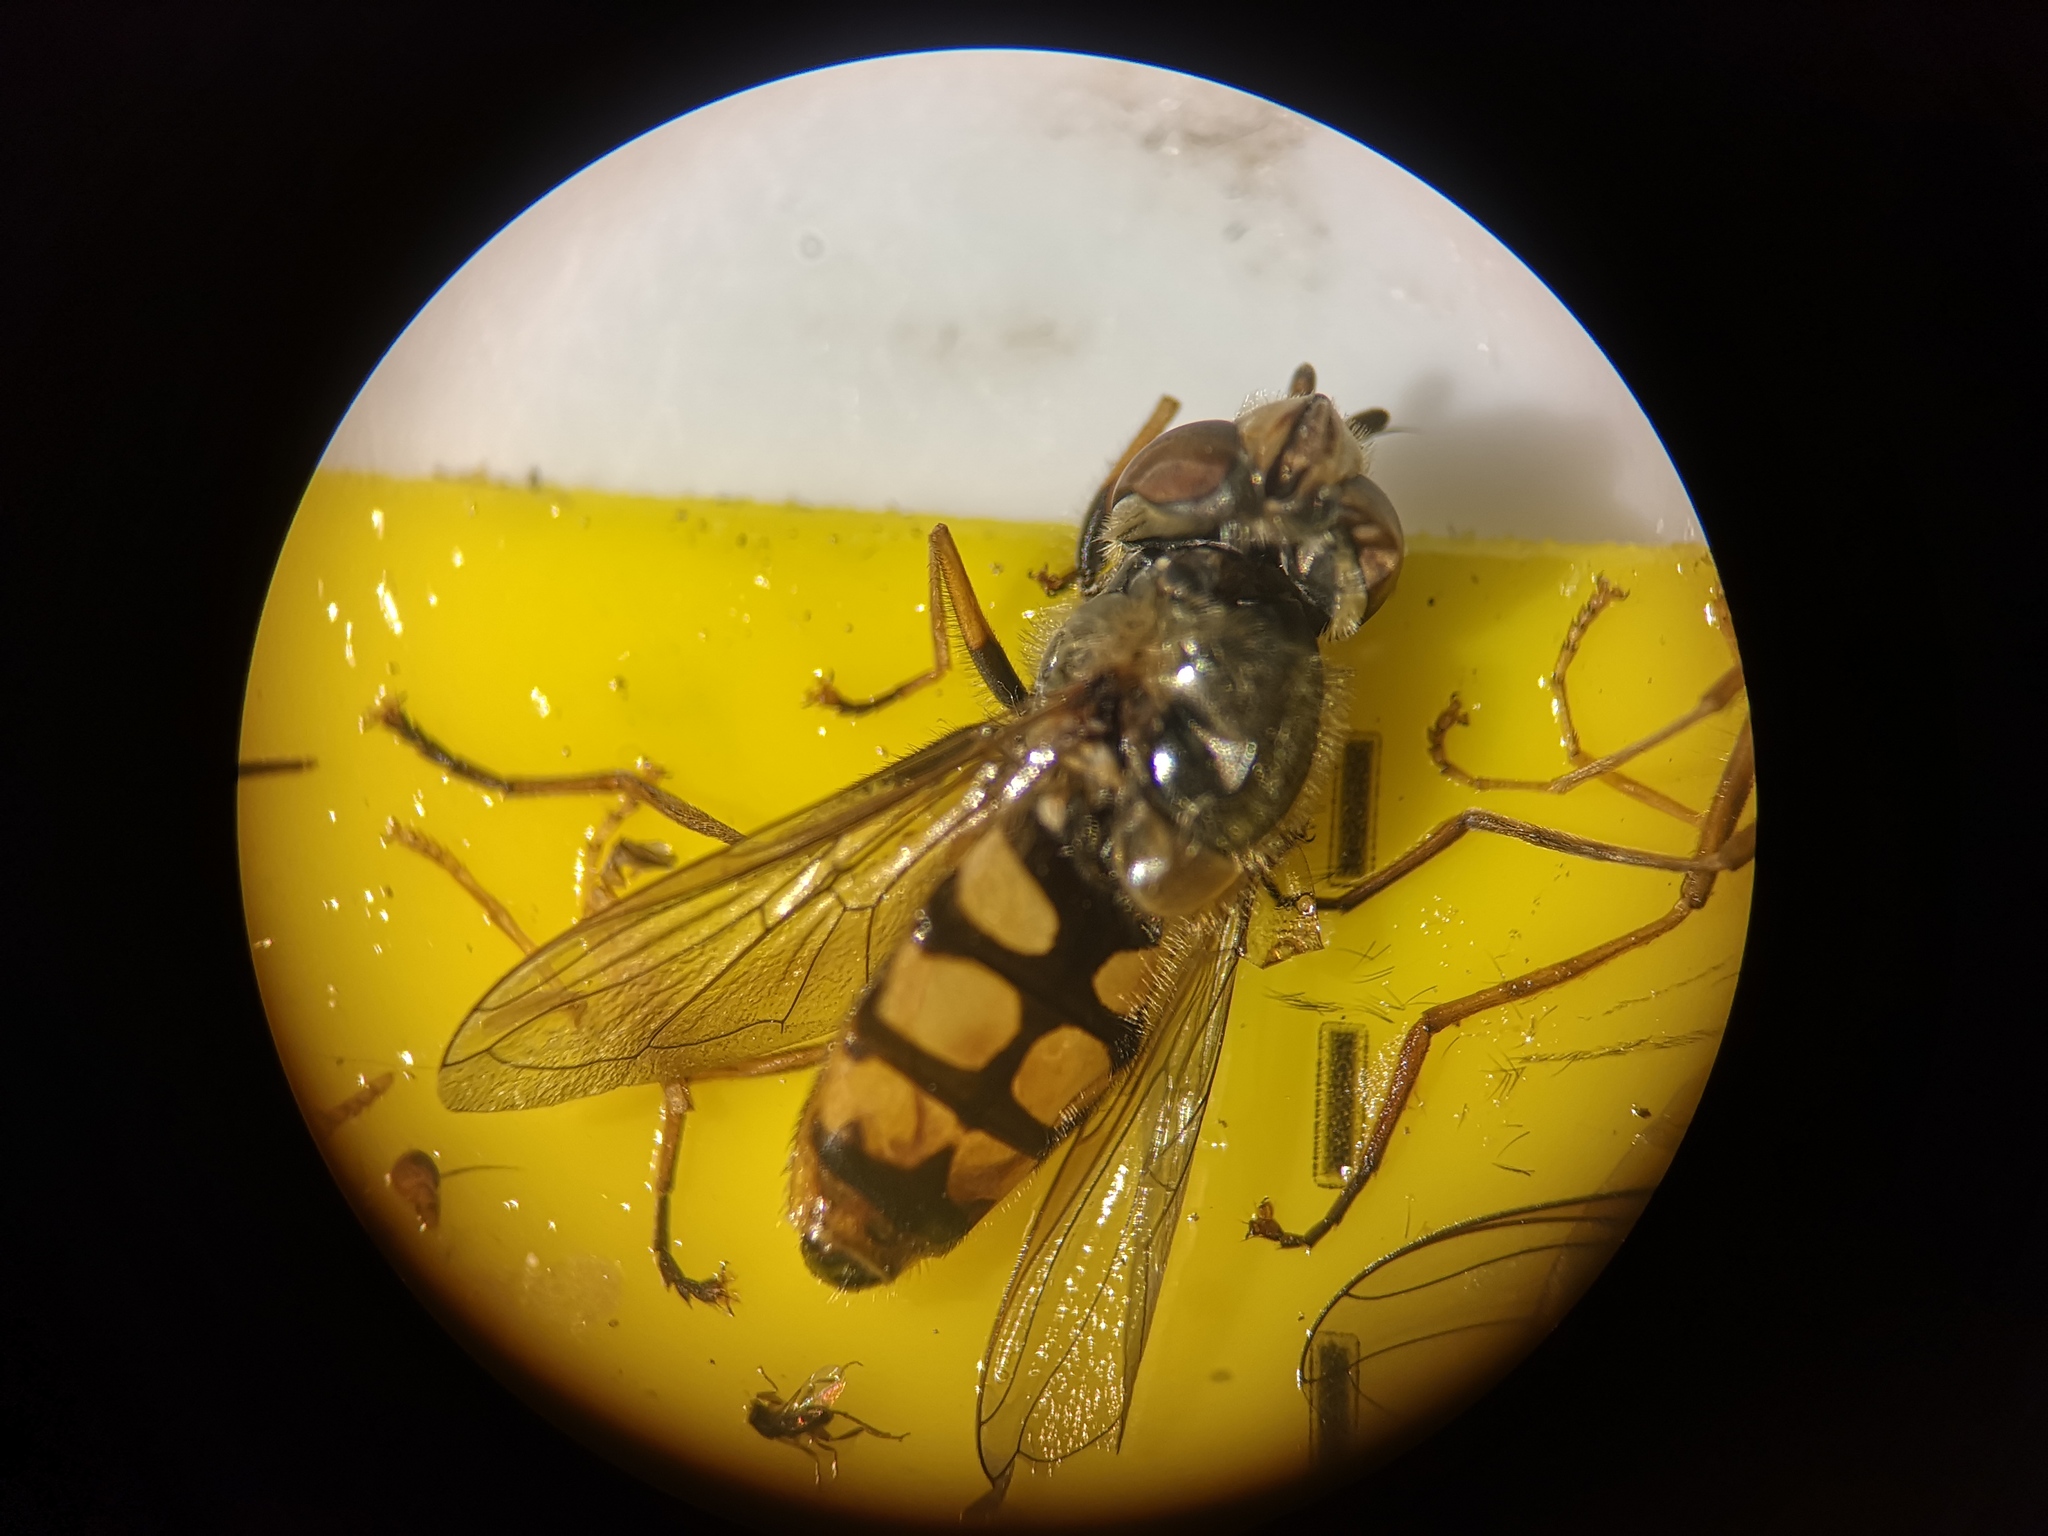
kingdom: Animalia
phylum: Arthropoda
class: Insecta
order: Diptera
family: Syrphidae
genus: Eupeodes
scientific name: Eupeodes corollae
